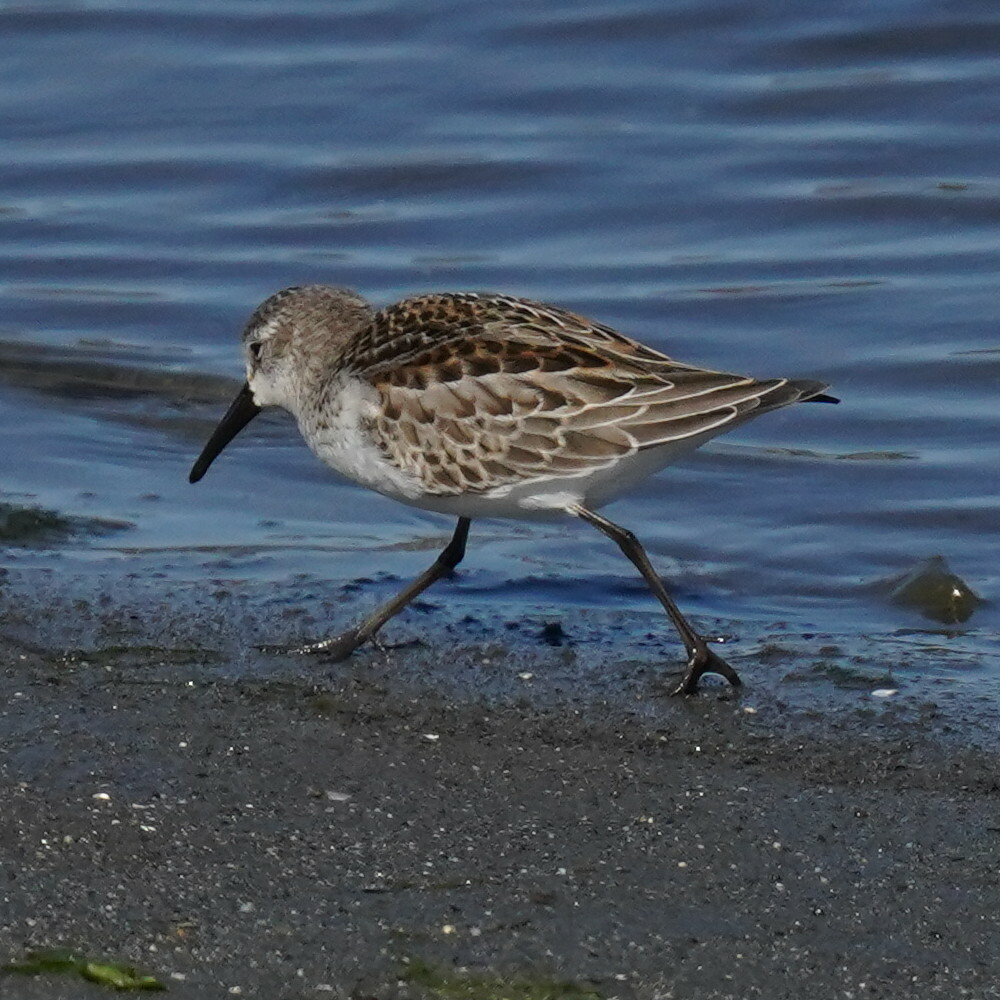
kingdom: Animalia
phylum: Chordata
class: Aves
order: Charadriiformes
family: Scolopacidae
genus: Calidris
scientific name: Calidris mauri
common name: Western sandpiper
